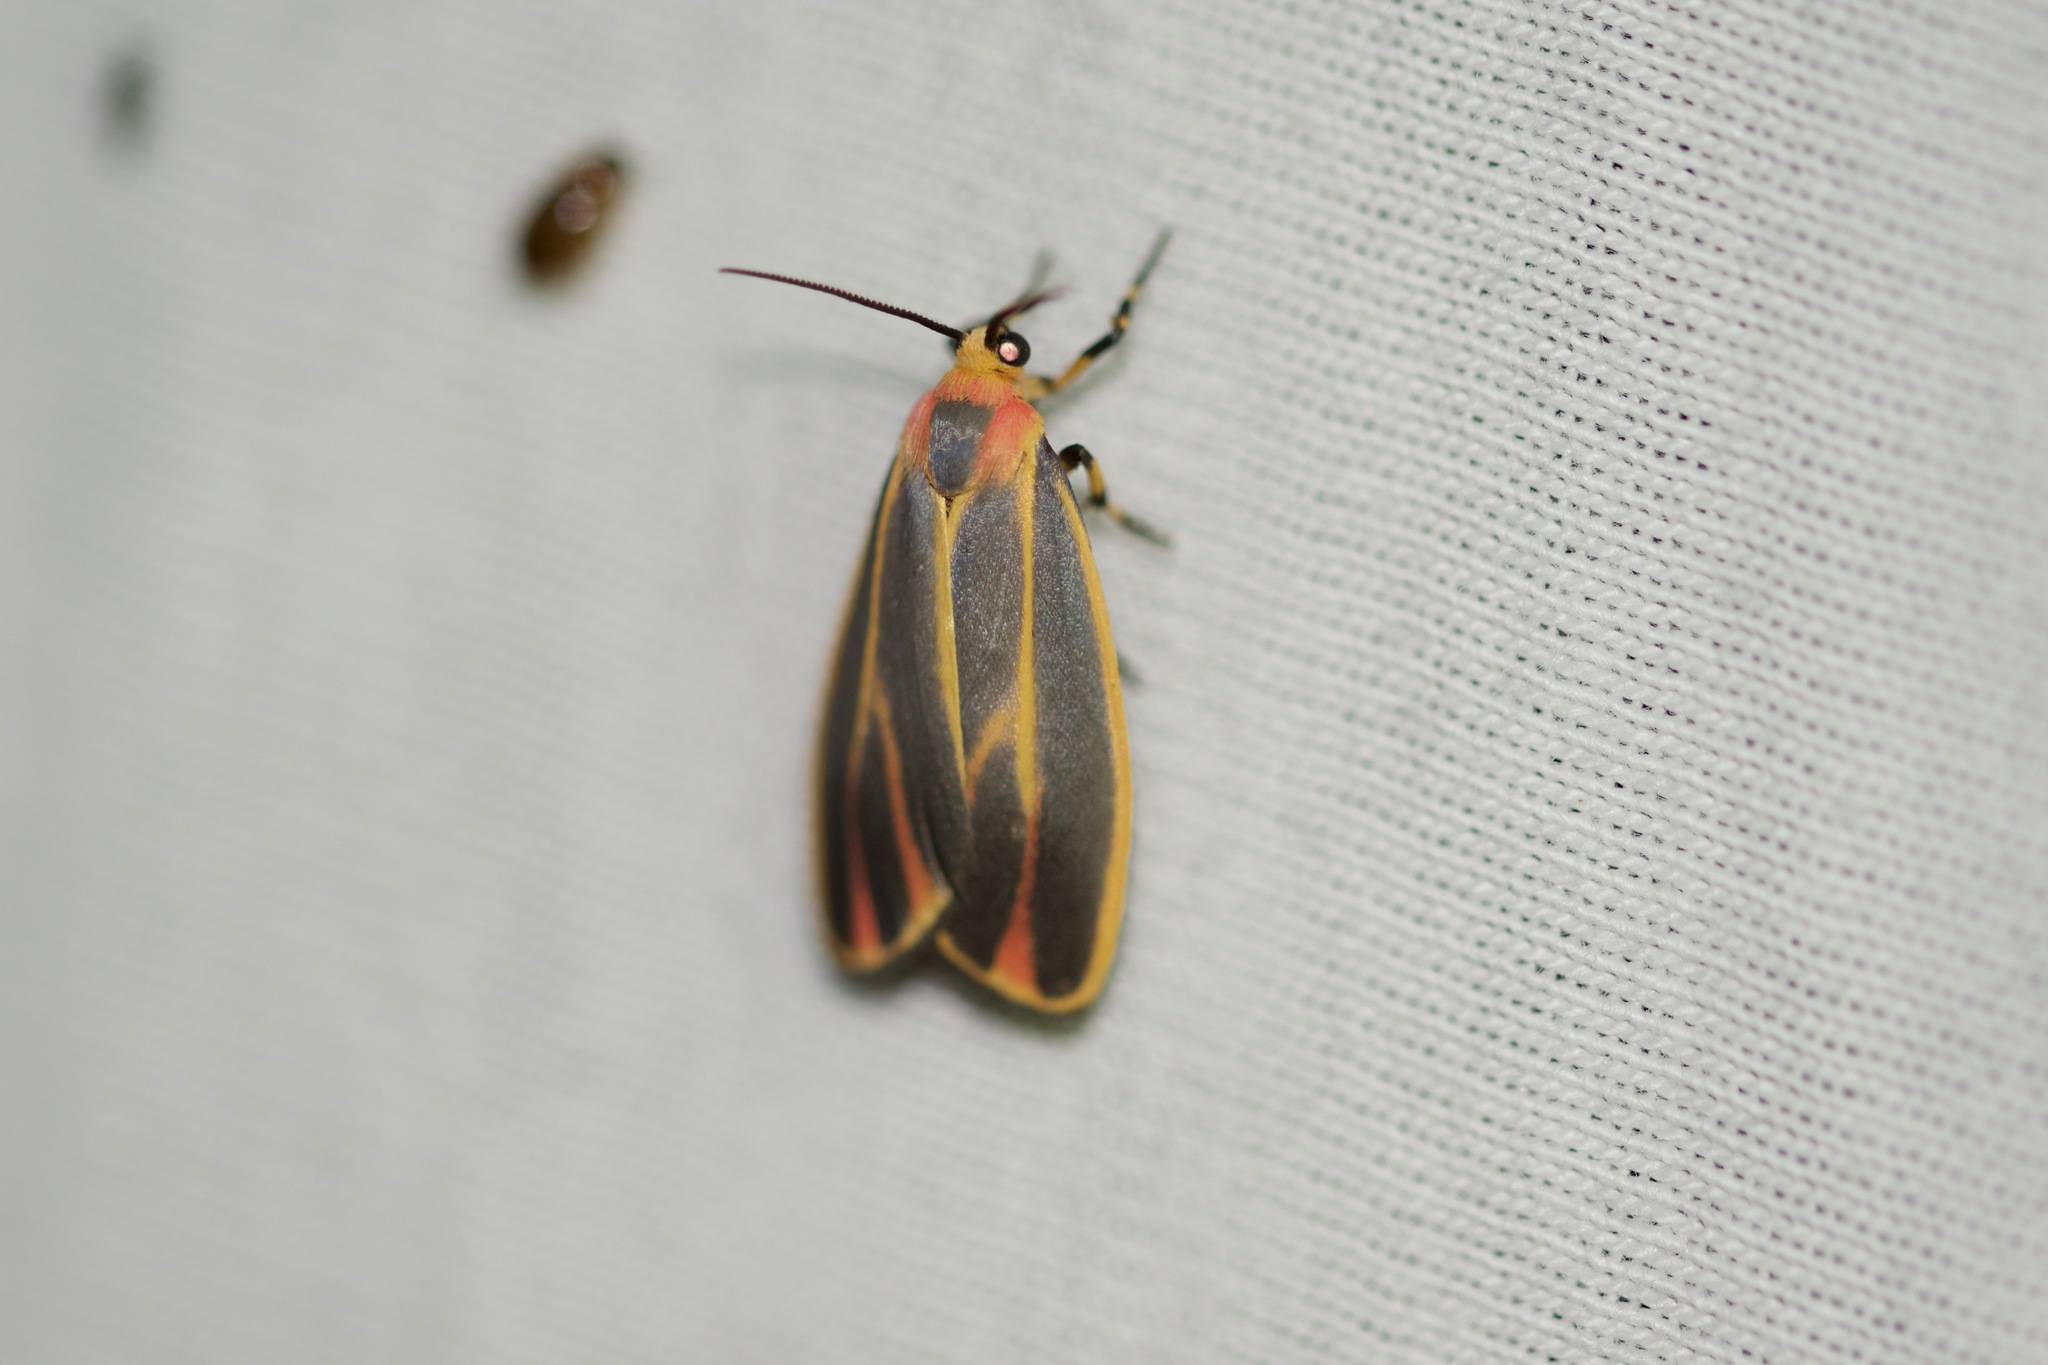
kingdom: Animalia
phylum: Arthropoda
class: Insecta
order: Lepidoptera
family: Erebidae
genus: Hypoprepia
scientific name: Hypoprepia fucosa
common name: Painted lichen moth
